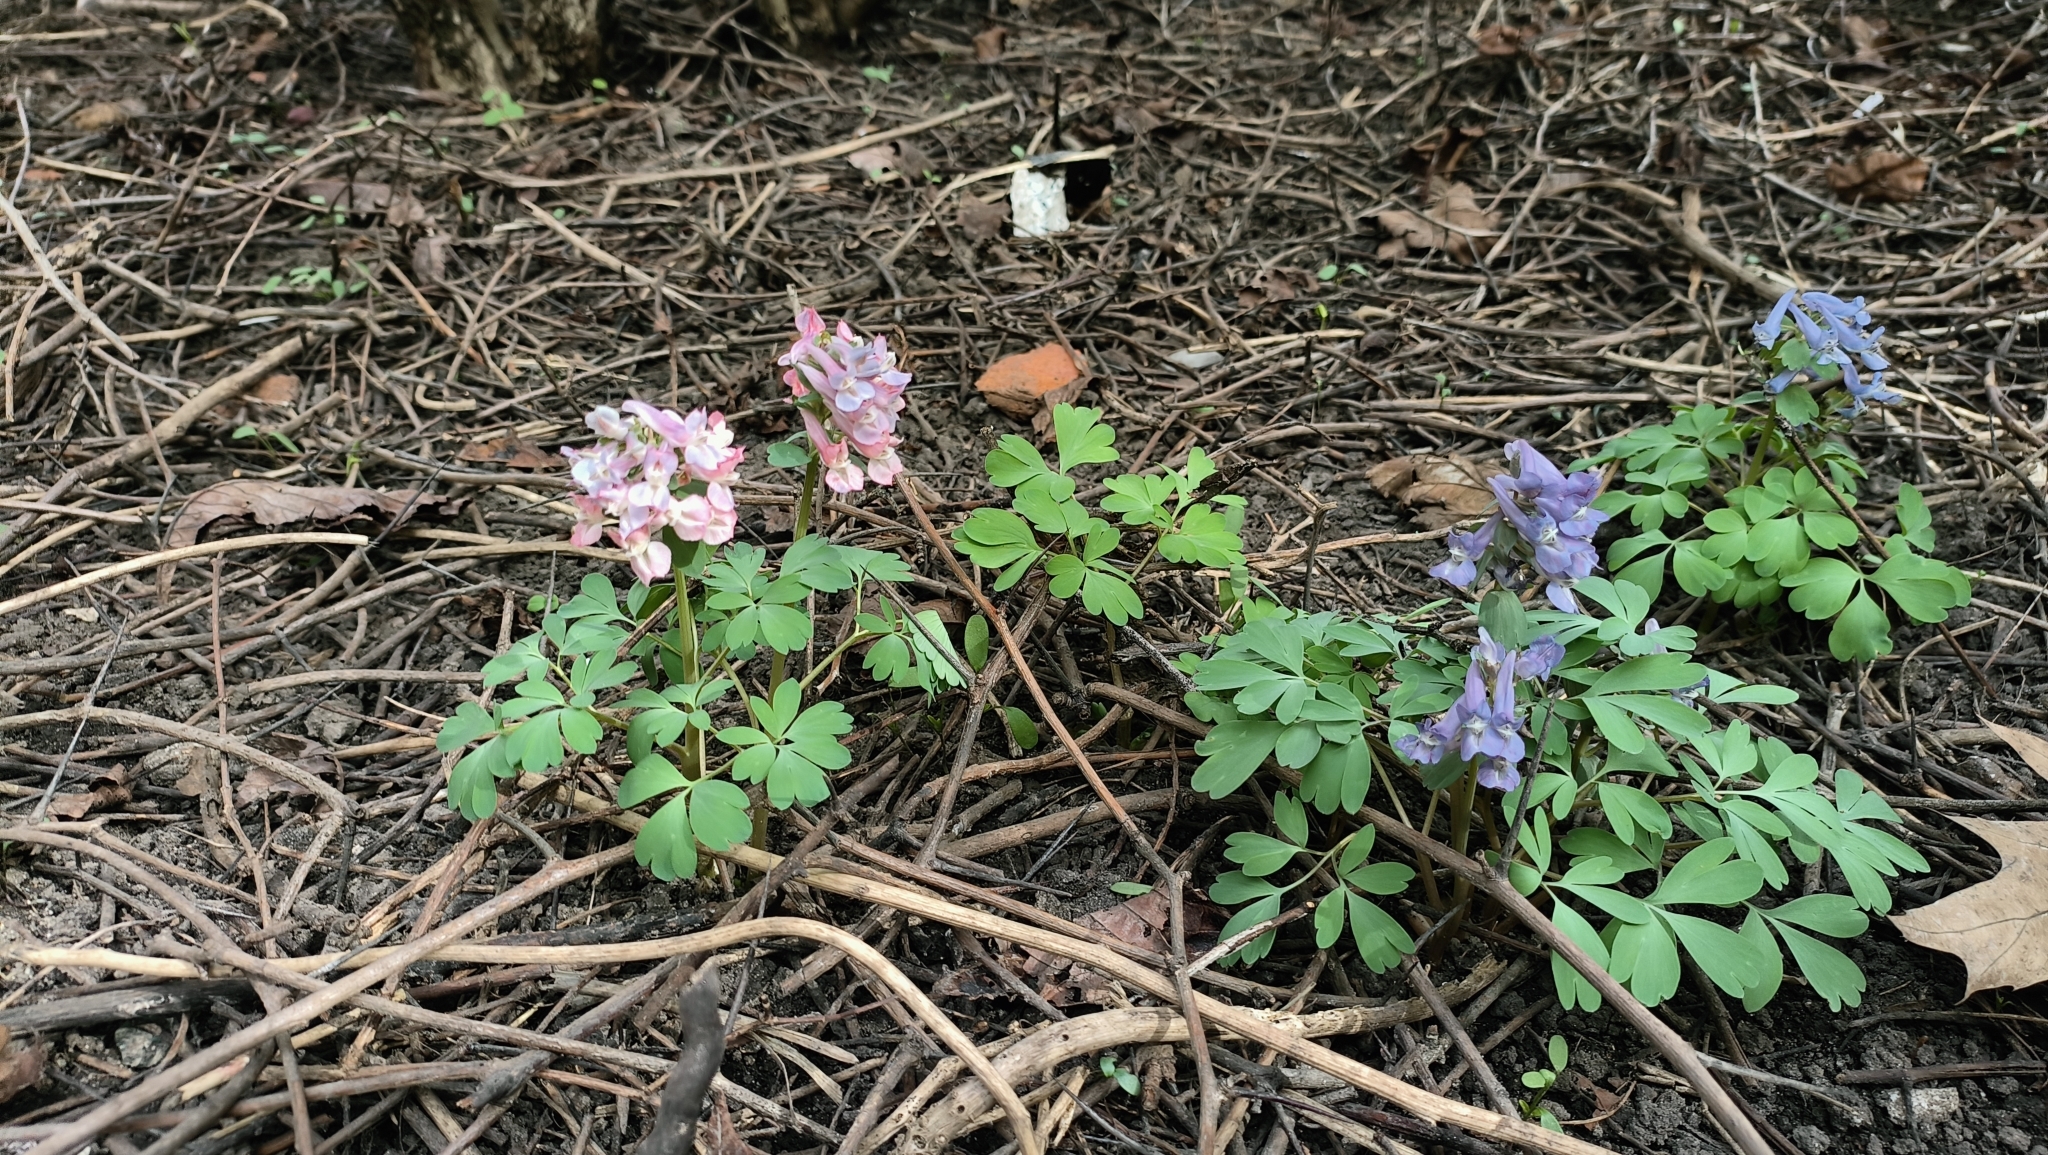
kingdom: Plantae
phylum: Tracheophyta
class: Magnoliopsida
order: Ranunculales
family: Papaveraceae
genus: Corydalis
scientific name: Corydalis solida
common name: Bird-in-a-bush
